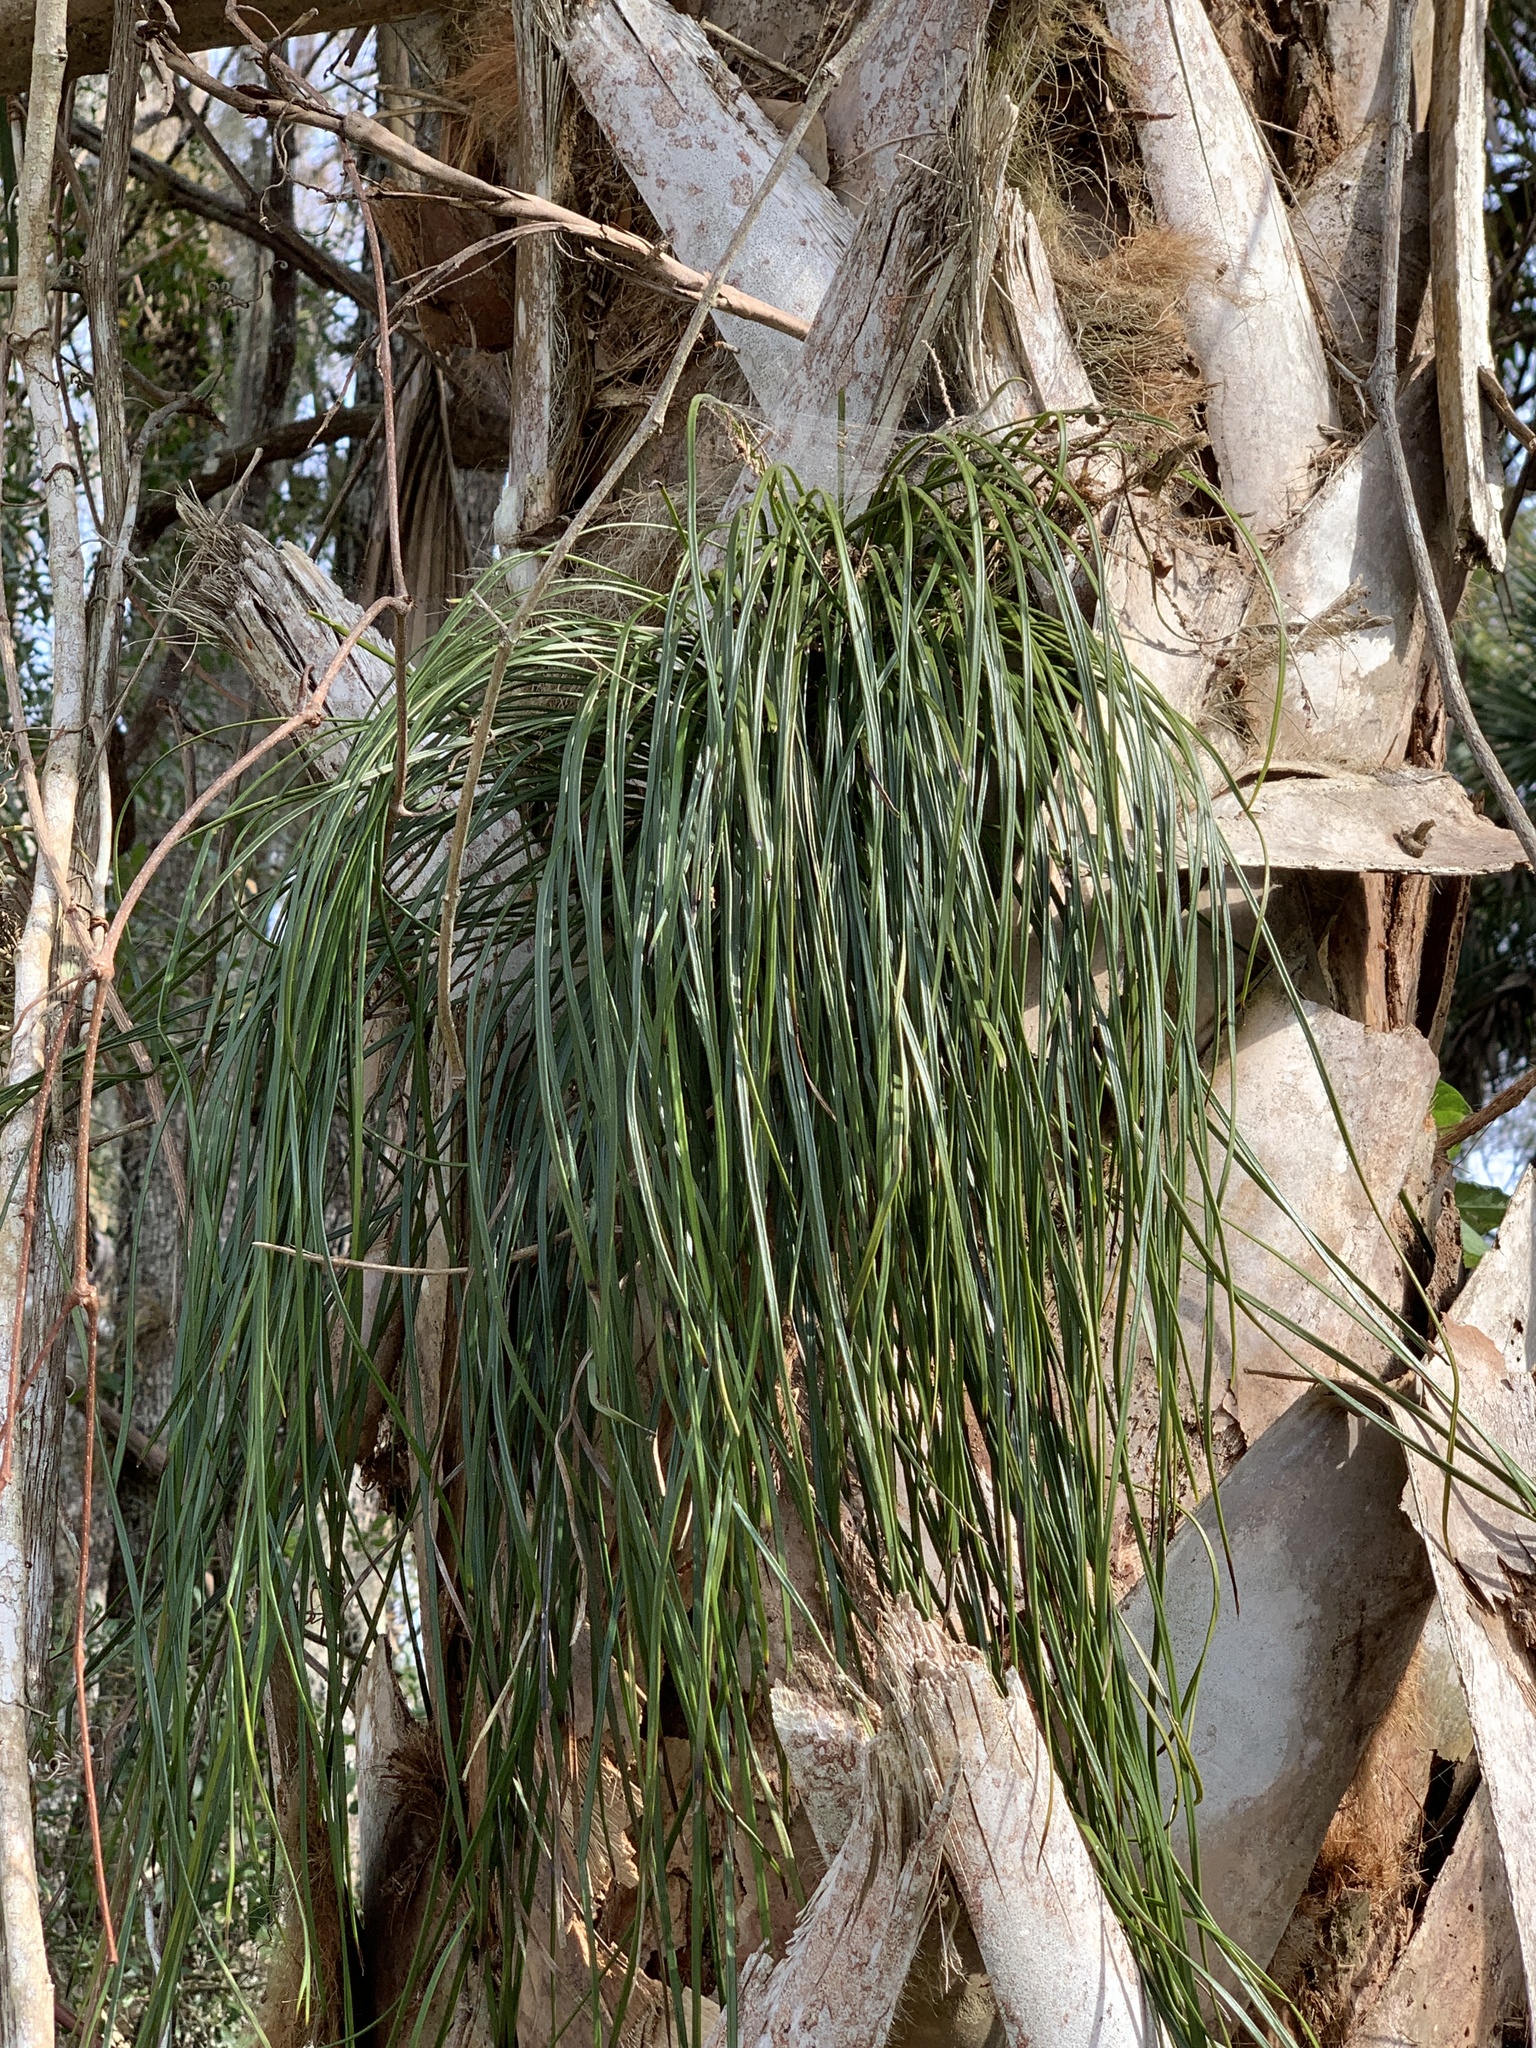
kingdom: Plantae
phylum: Tracheophyta
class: Polypodiopsida
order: Polypodiales
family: Pteridaceae
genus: Vittaria
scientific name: Vittaria lineata
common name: Shoestring fern
